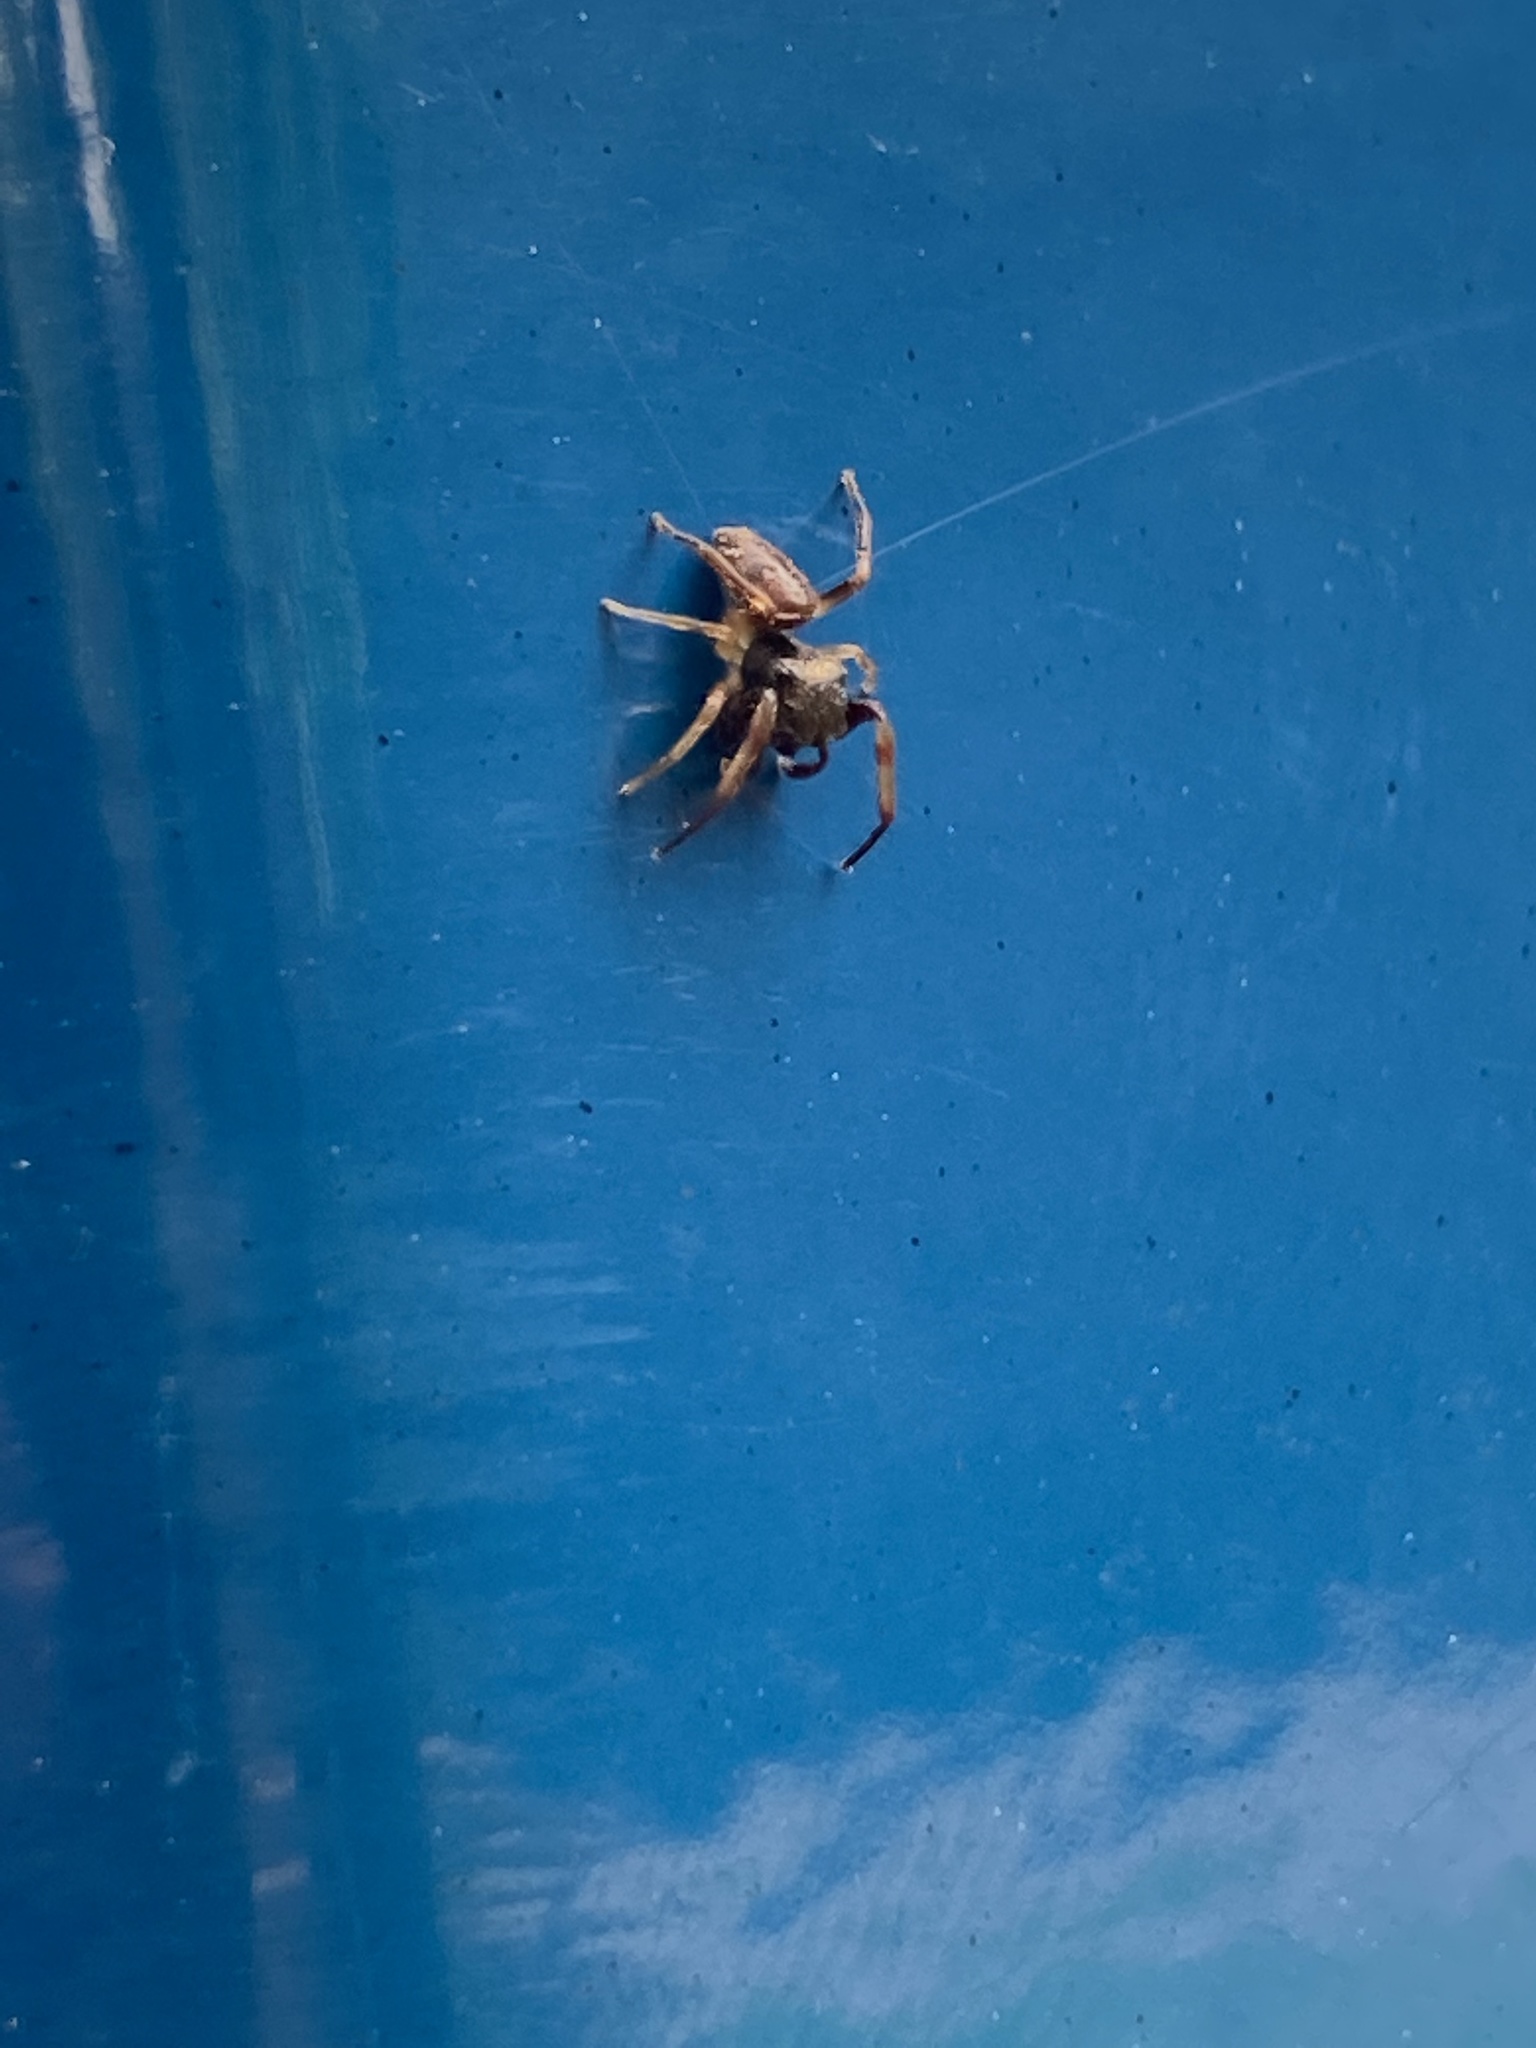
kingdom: Animalia
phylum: Arthropoda
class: Arachnida
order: Araneae
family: Salticidae
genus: Zygoballus
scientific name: Zygoballus rufipes
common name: Jumping spiders
